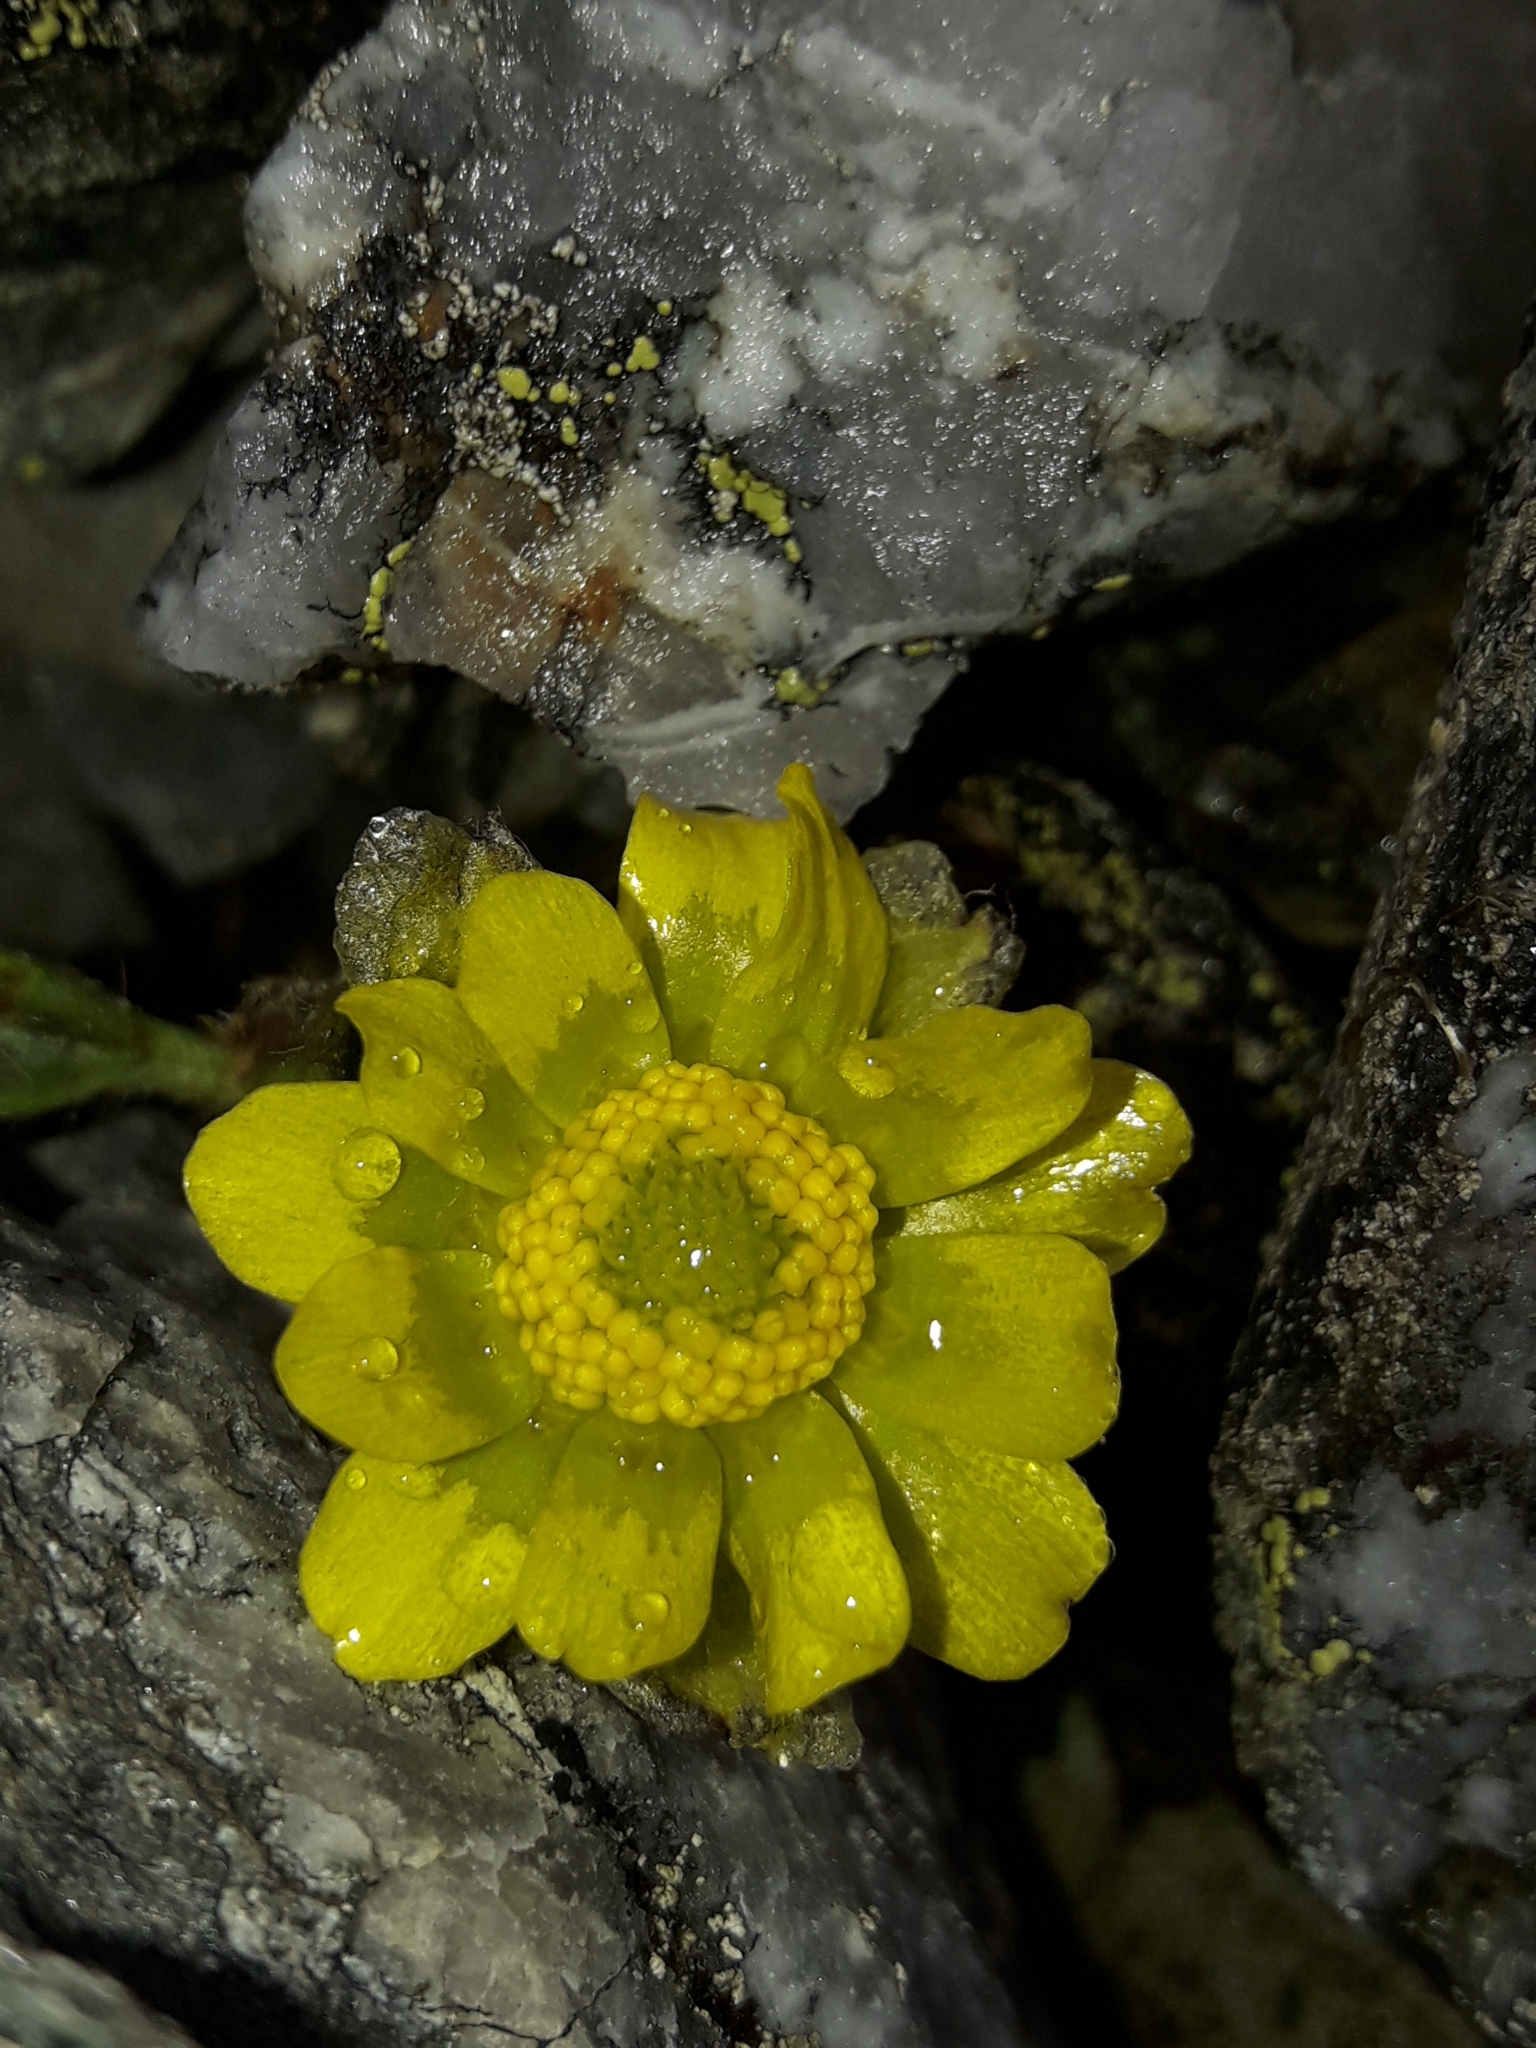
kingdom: Plantae
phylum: Tracheophyta
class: Magnoliopsida
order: Ranunculales
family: Ranunculaceae
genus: Ranunculus
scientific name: Ranunculus pachyrrhizus
